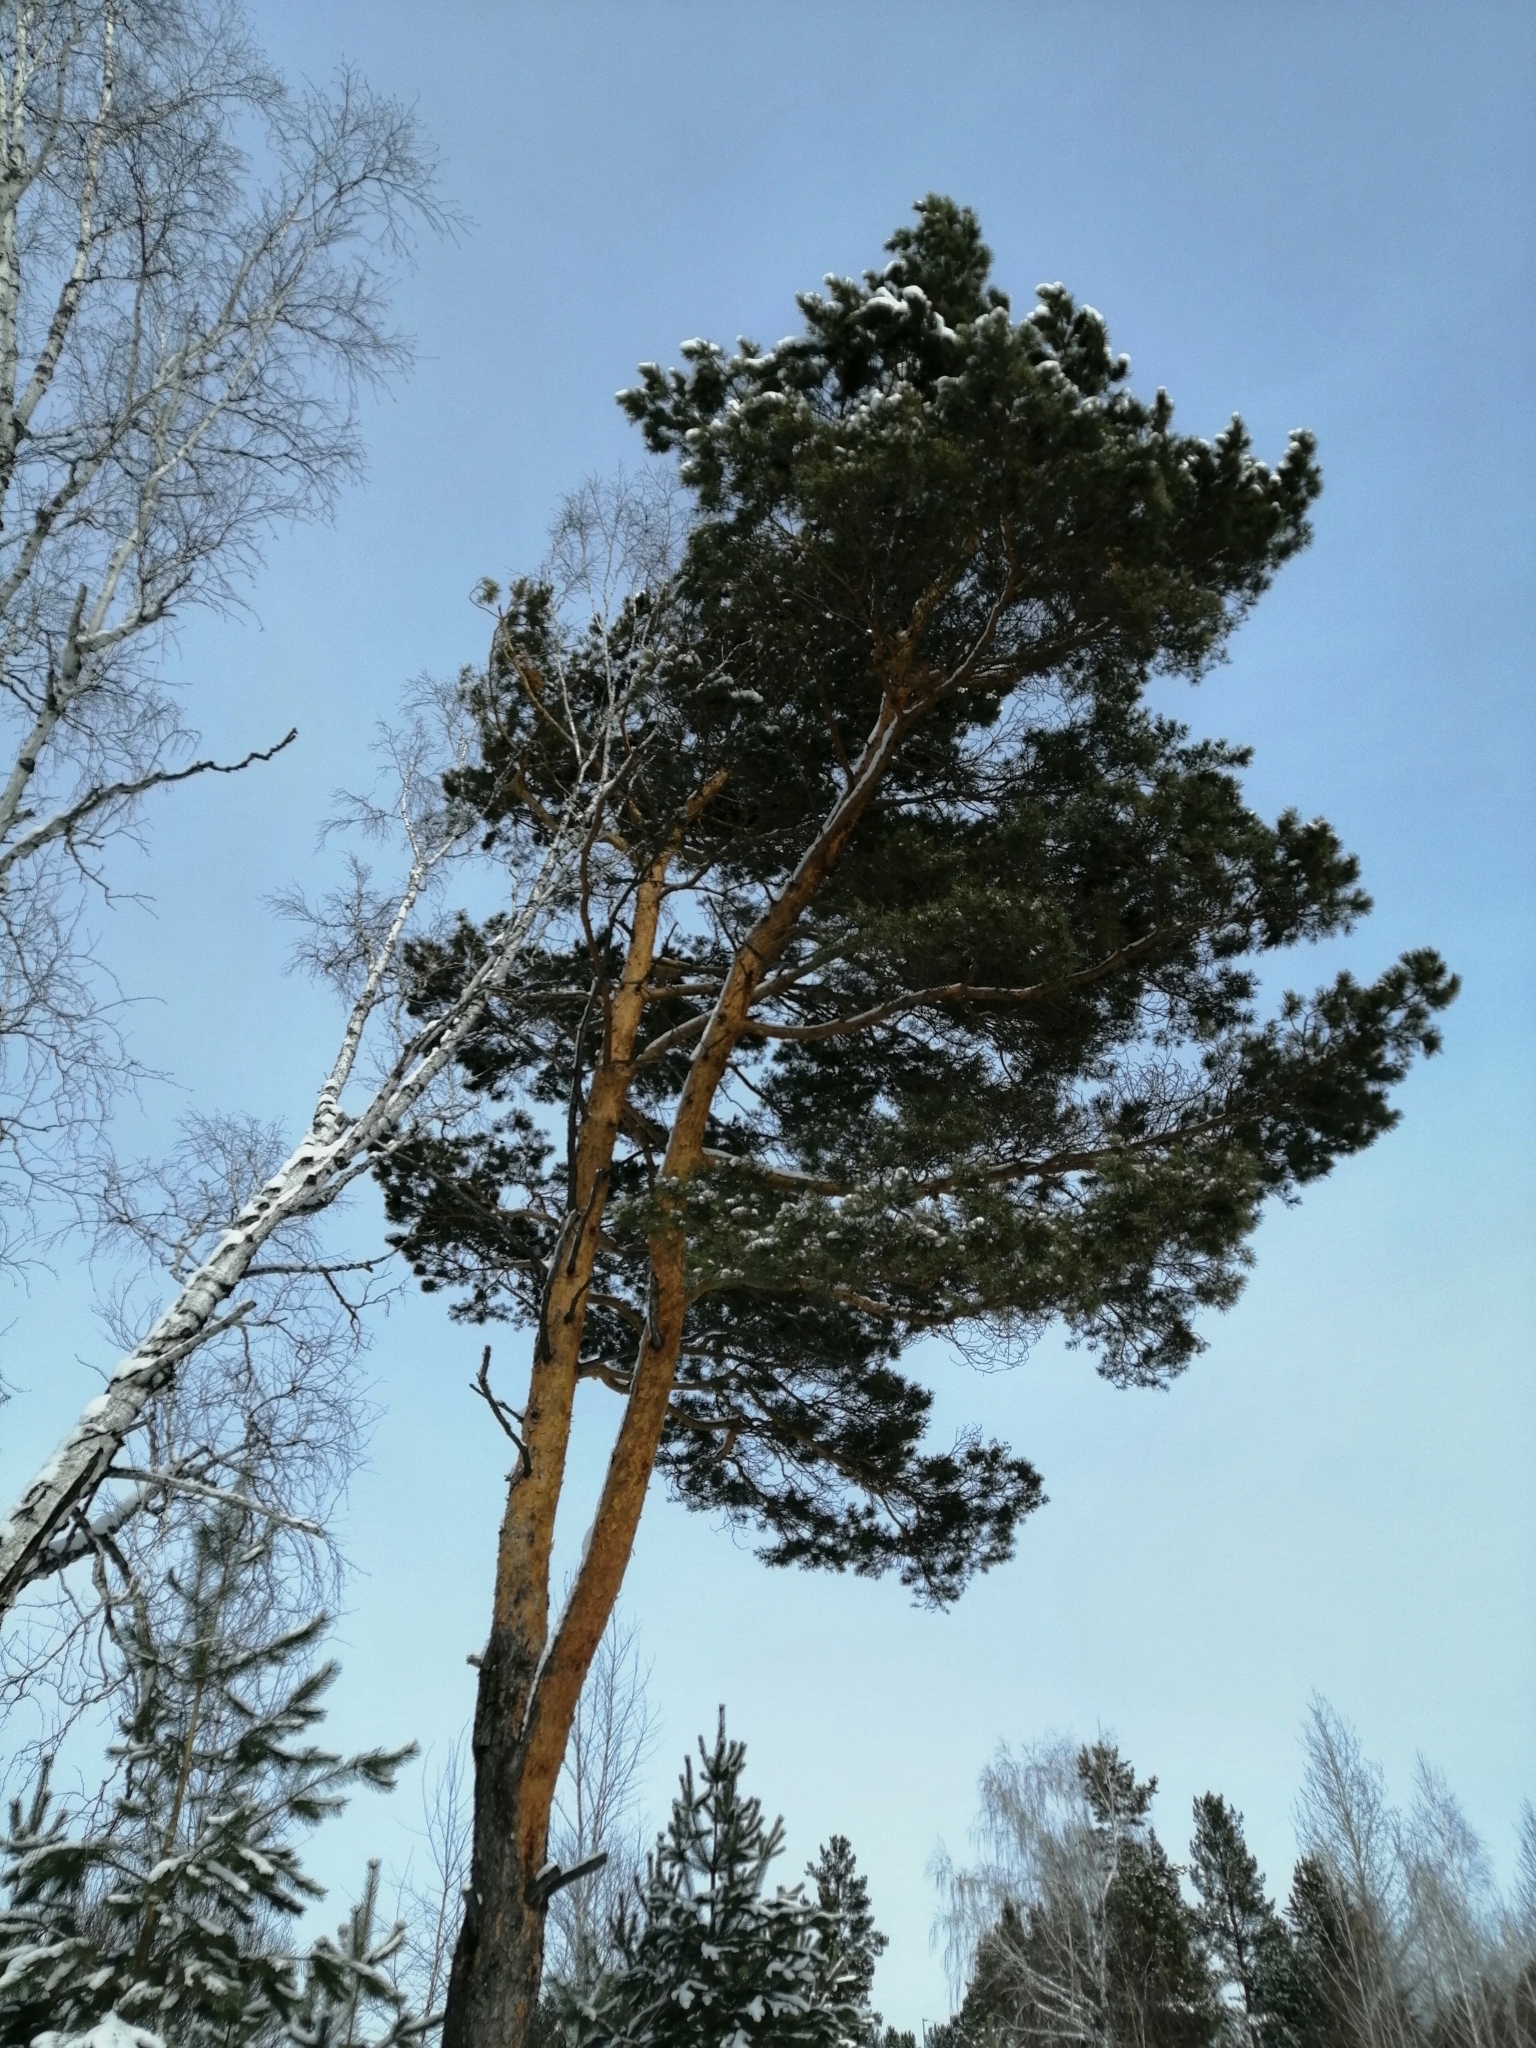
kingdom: Plantae
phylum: Tracheophyta
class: Pinopsida
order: Pinales
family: Pinaceae
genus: Pinus
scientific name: Pinus sylvestris
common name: Scots pine
